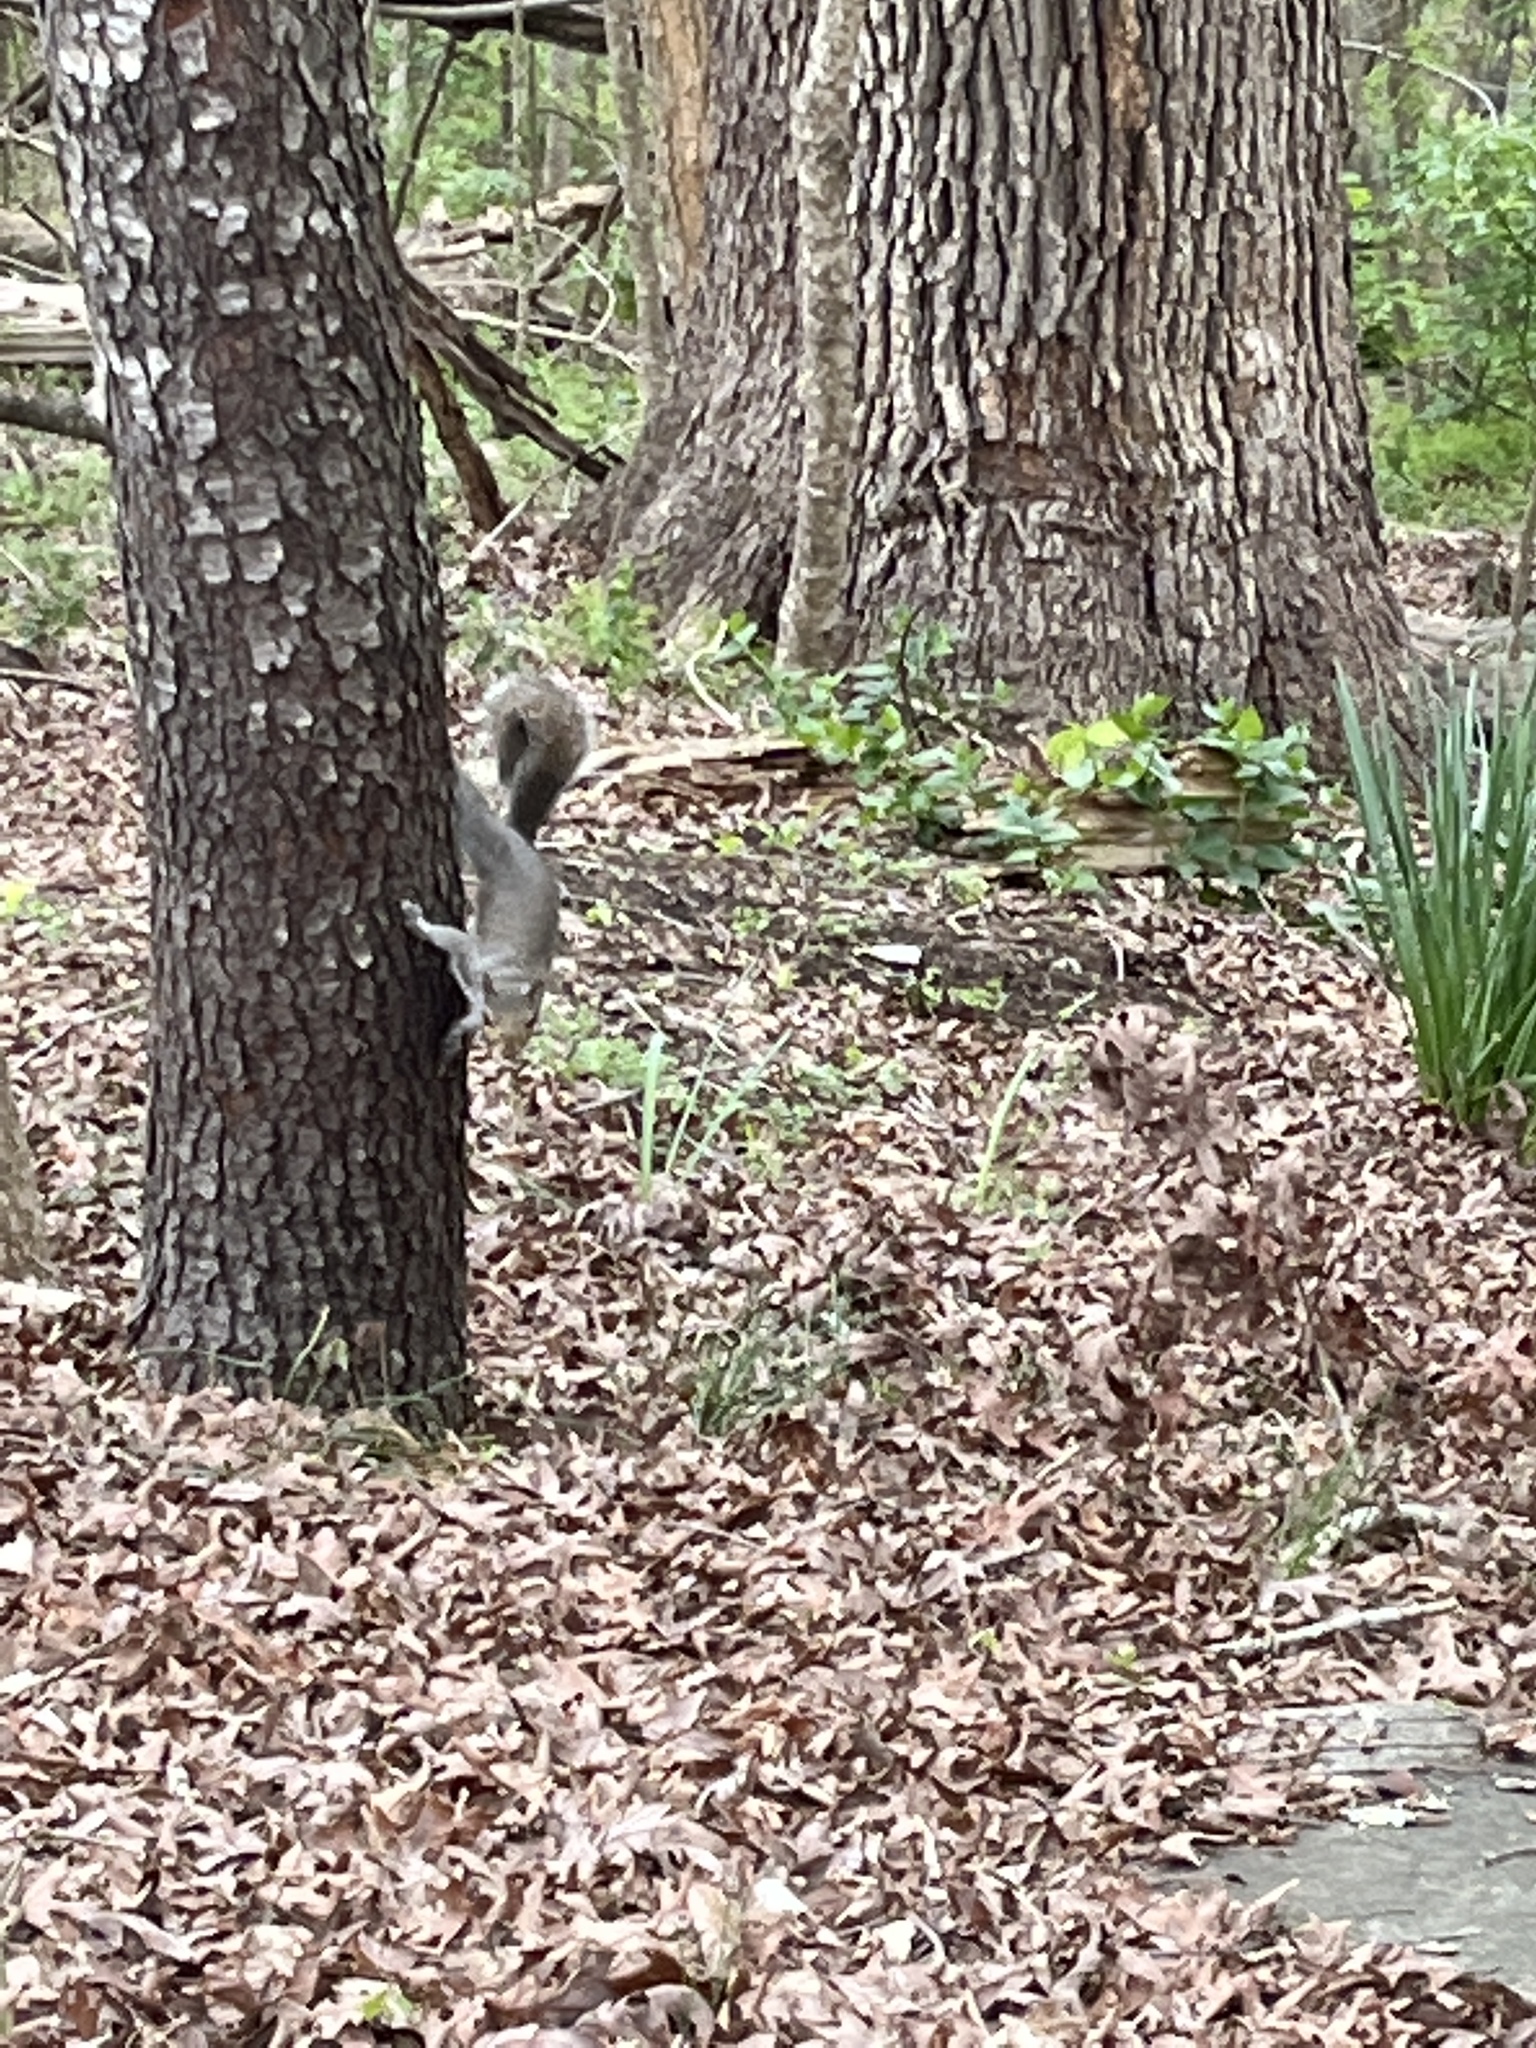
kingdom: Animalia
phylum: Chordata
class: Mammalia
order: Rodentia
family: Sciuridae
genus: Sciurus
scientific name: Sciurus carolinensis
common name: Eastern gray squirrel
